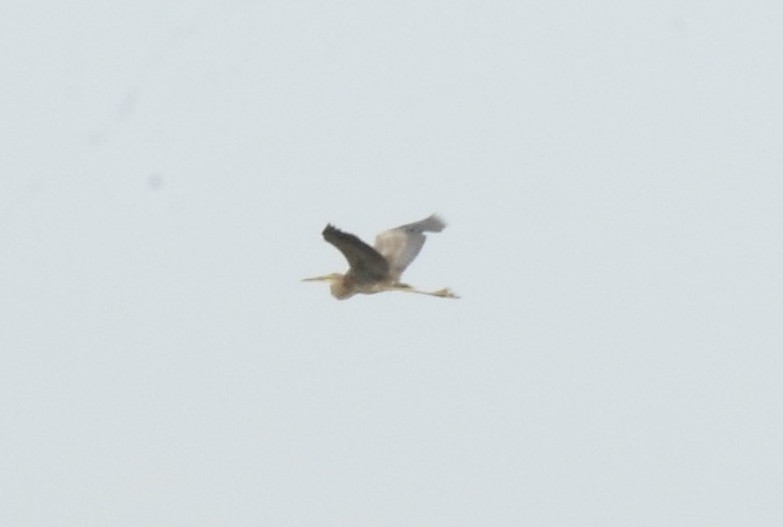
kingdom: Animalia
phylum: Chordata
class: Aves
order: Pelecaniformes
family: Ardeidae
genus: Ardea
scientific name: Ardea purpurea
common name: Purple heron
